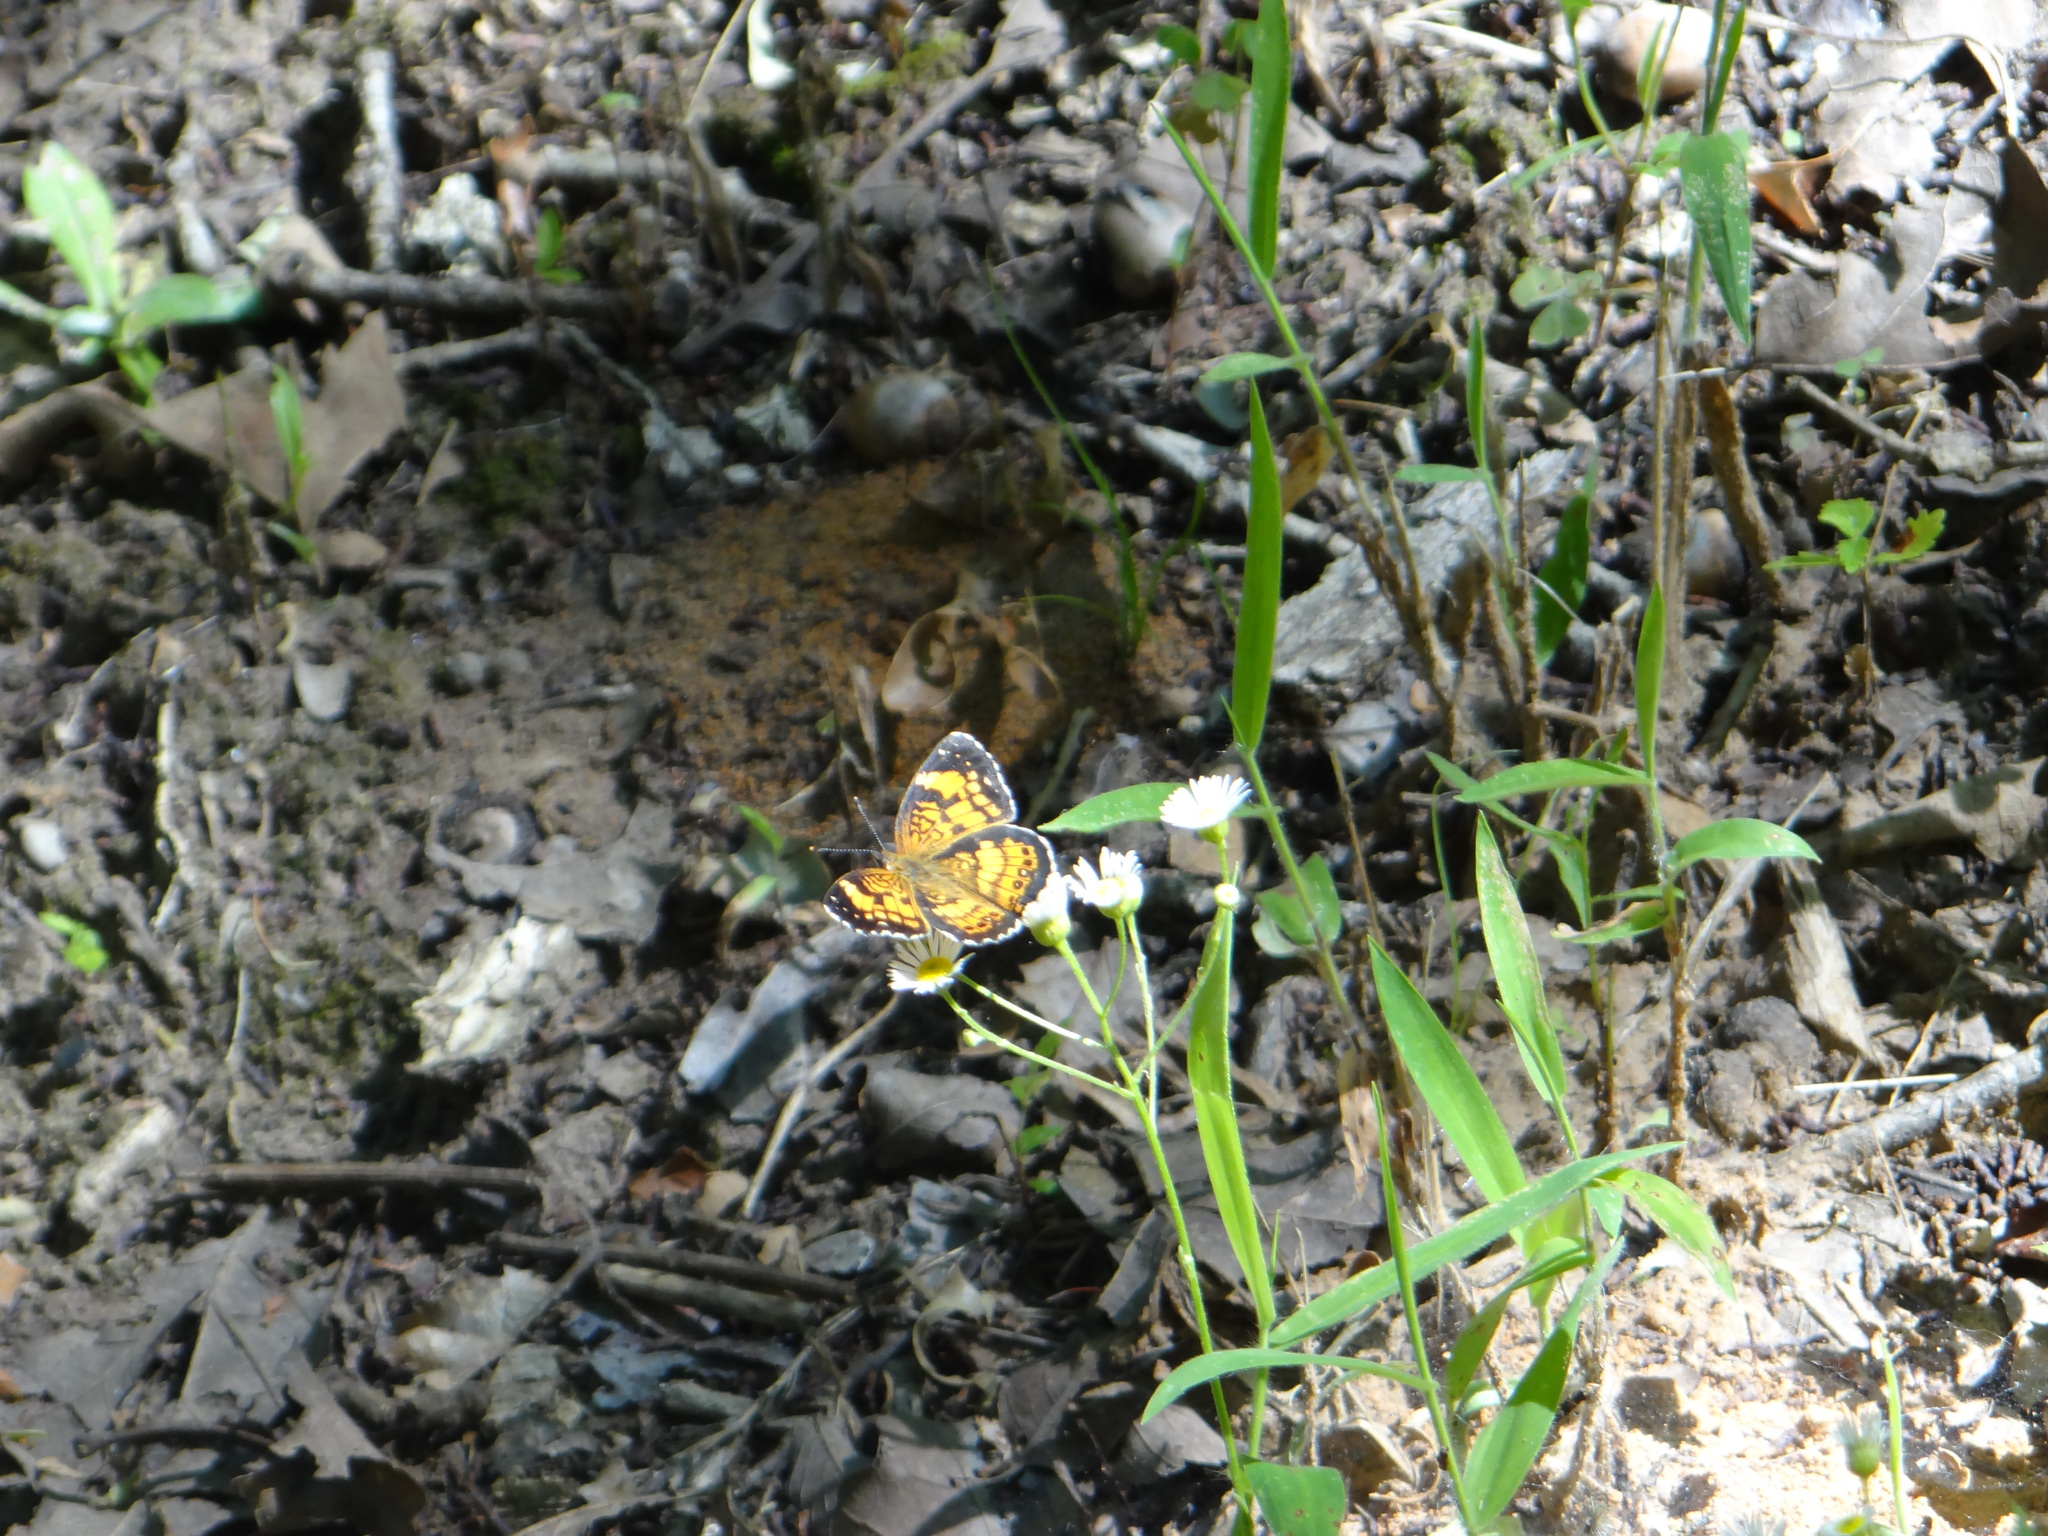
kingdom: Animalia
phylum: Arthropoda
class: Insecta
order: Lepidoptera
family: Nymphalidae
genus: Phyciodes
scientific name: Phyciodes tharos
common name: Pearl crescent
